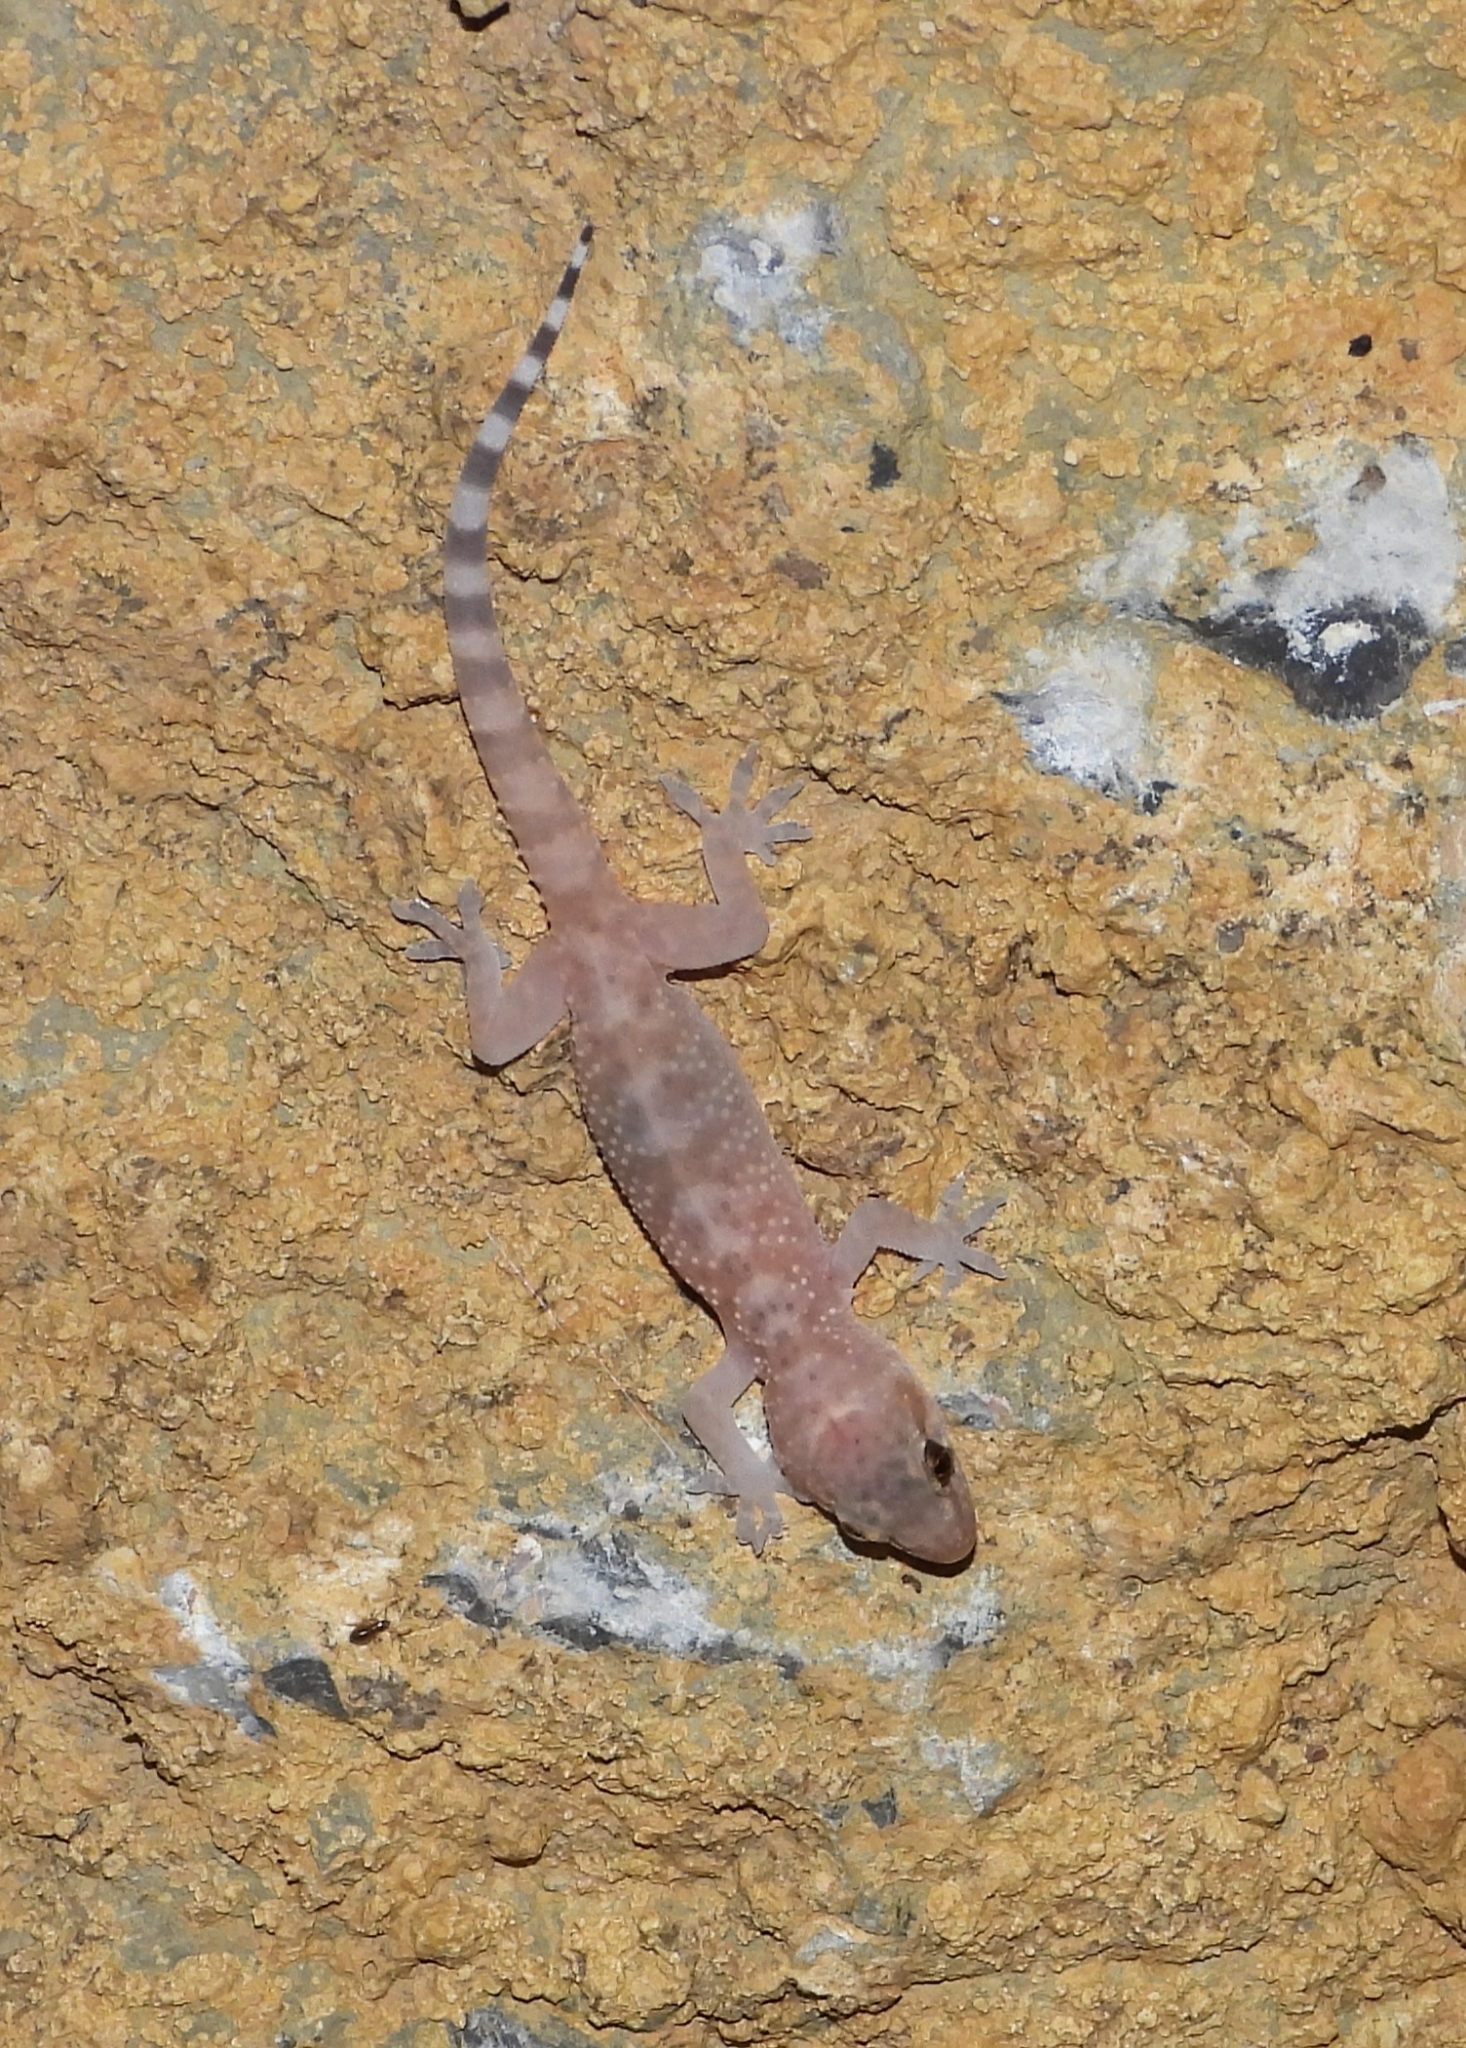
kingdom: Animalia
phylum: Chordata
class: Squamata
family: Gekkonidae
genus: Hemidactylus
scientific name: Hemidactylus turcicus
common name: Turkish gecko
